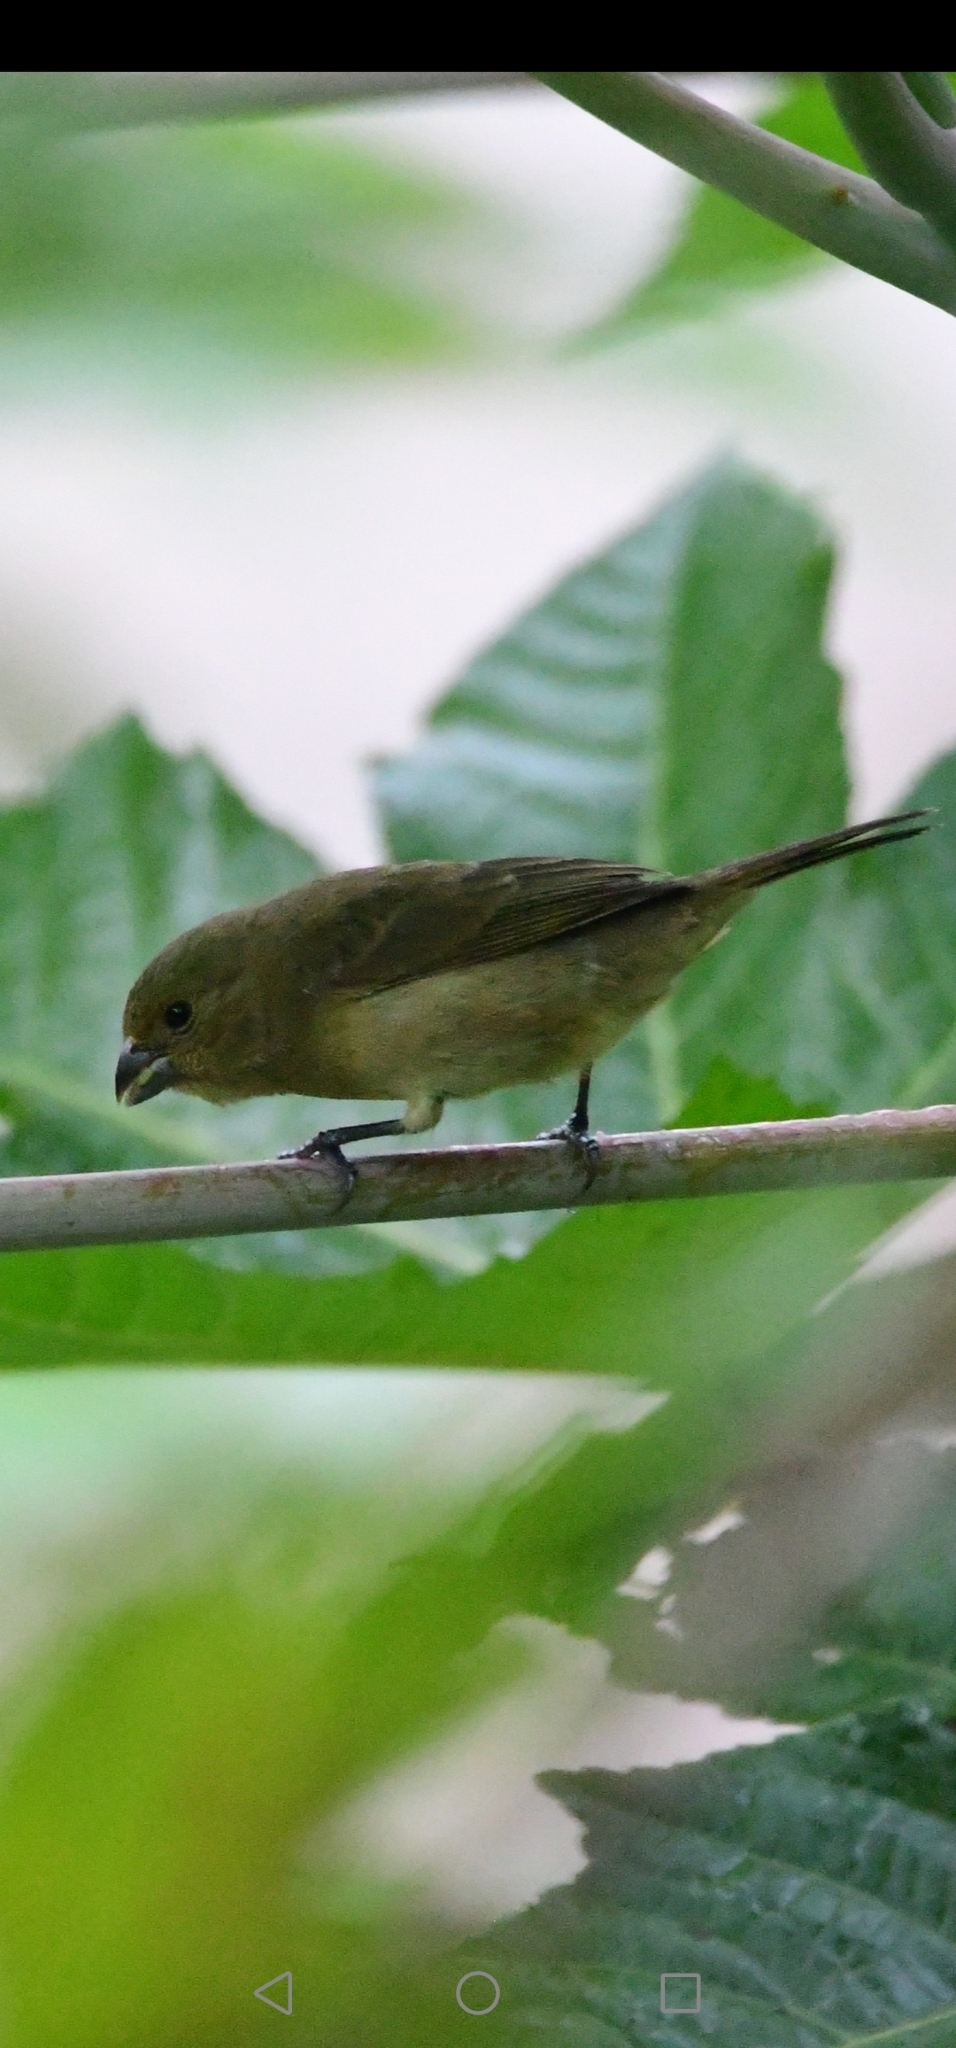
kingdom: Animalia
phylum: Chordata
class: Aves
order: Passeriformes
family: Thraupidae
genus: Sporophila
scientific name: Sporophila nigricollis
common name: Yellow-bellied seedeater
